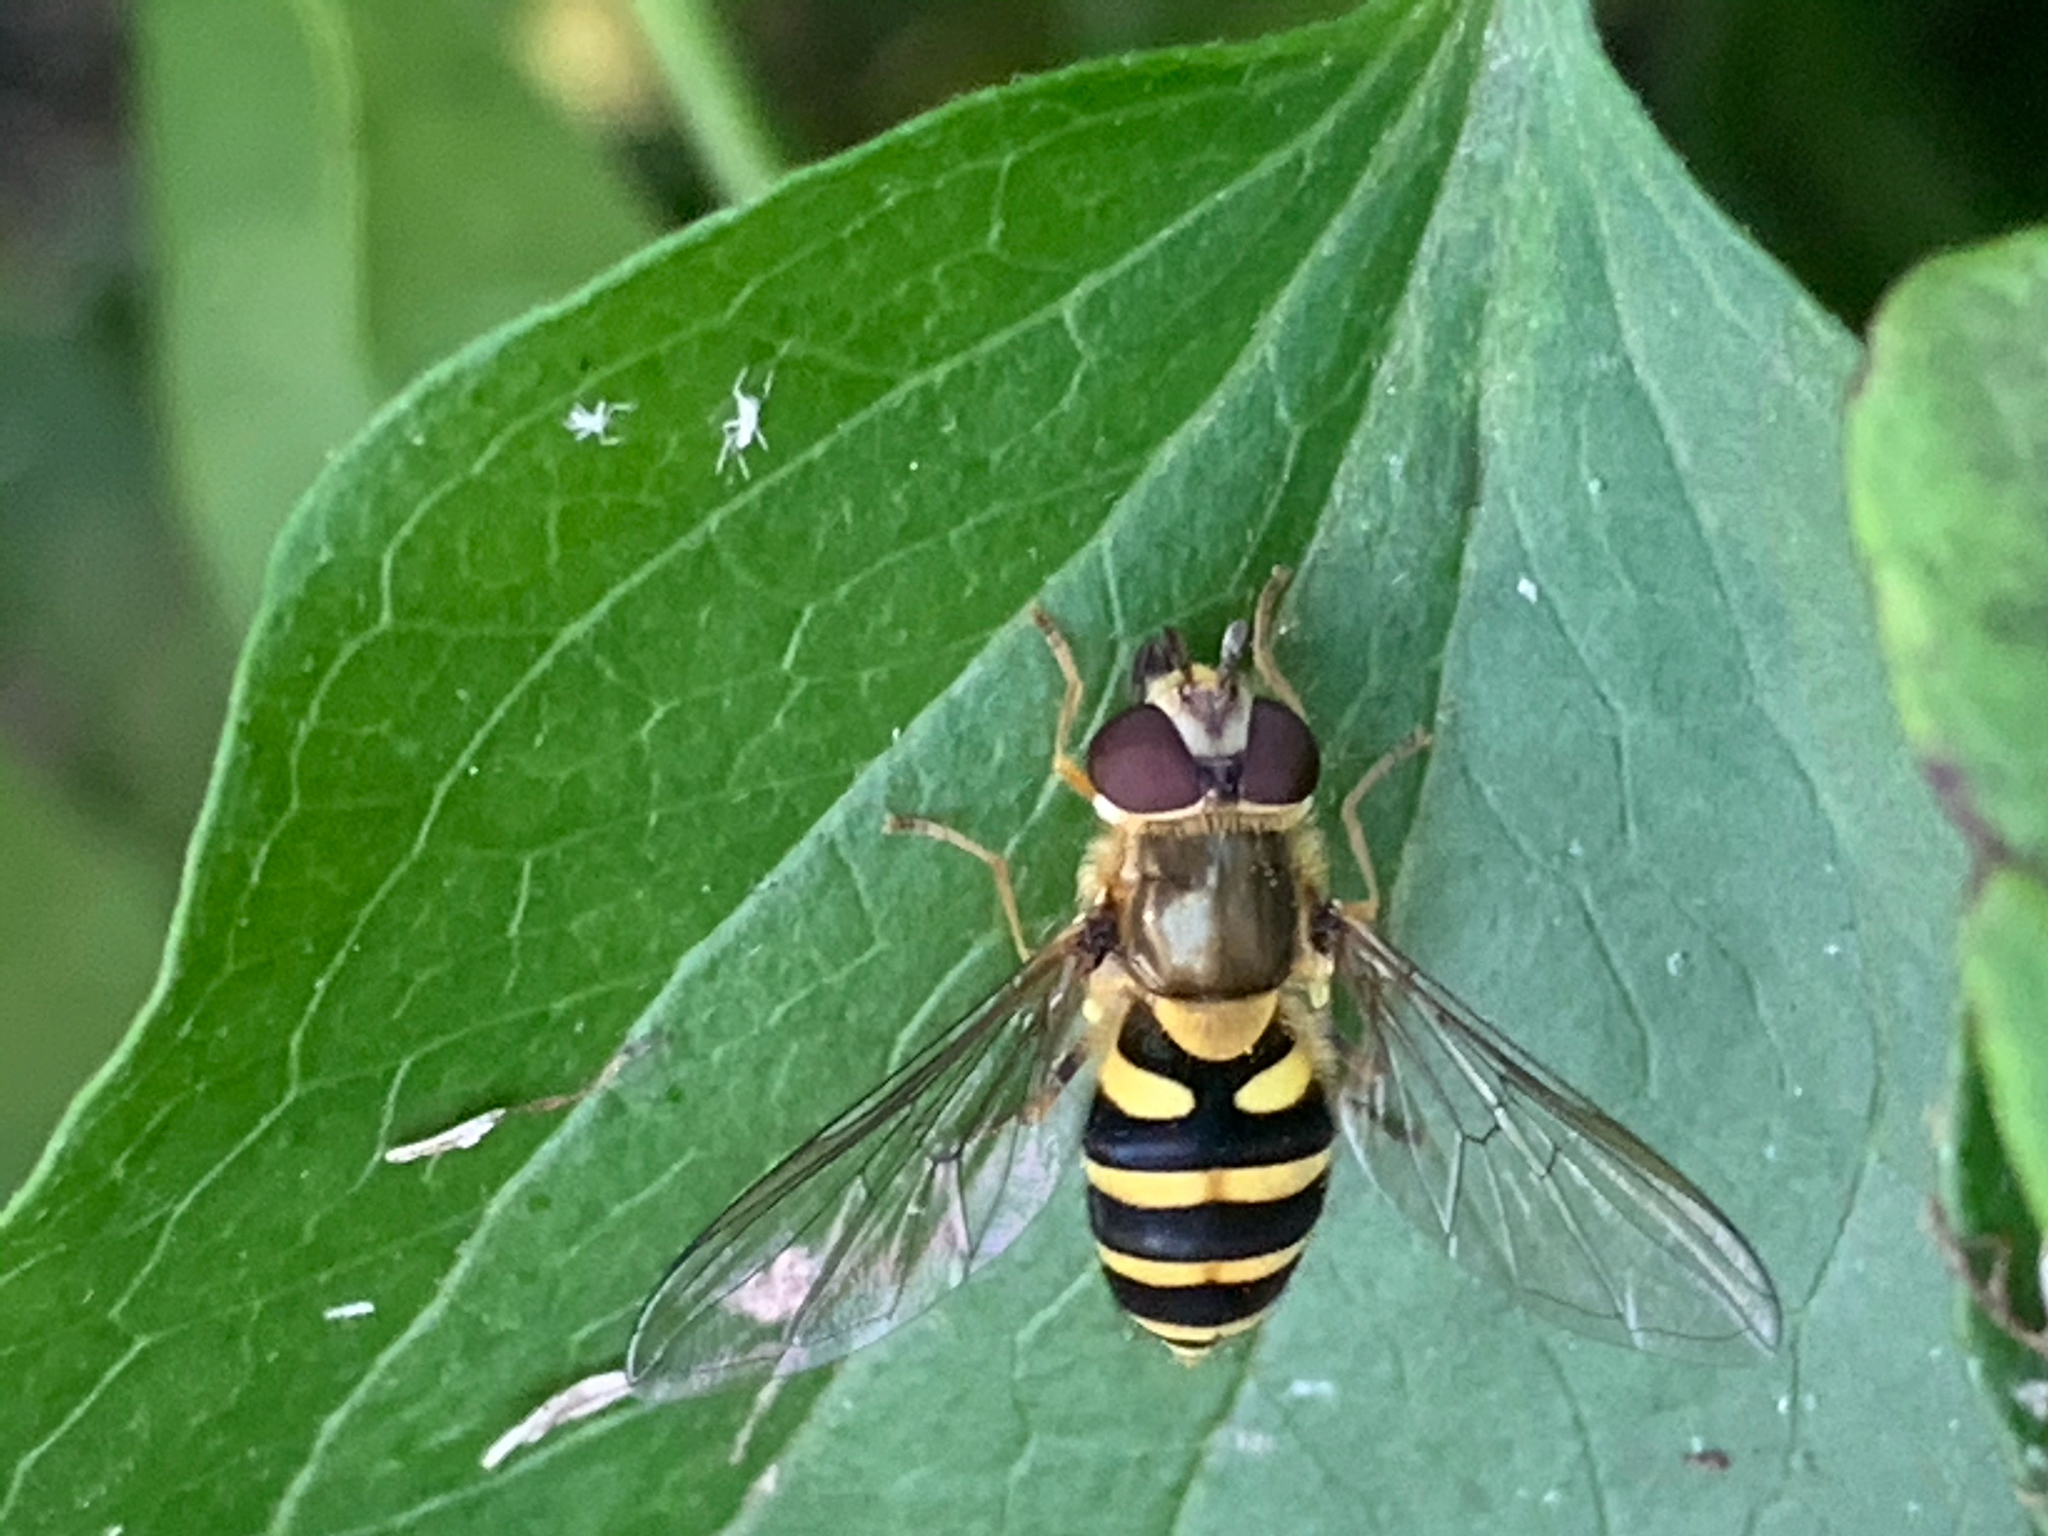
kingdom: Animalia
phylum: Arthropoda
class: Insecta
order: Diptera
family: Syrphidae
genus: Syrphus
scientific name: Syrphus
